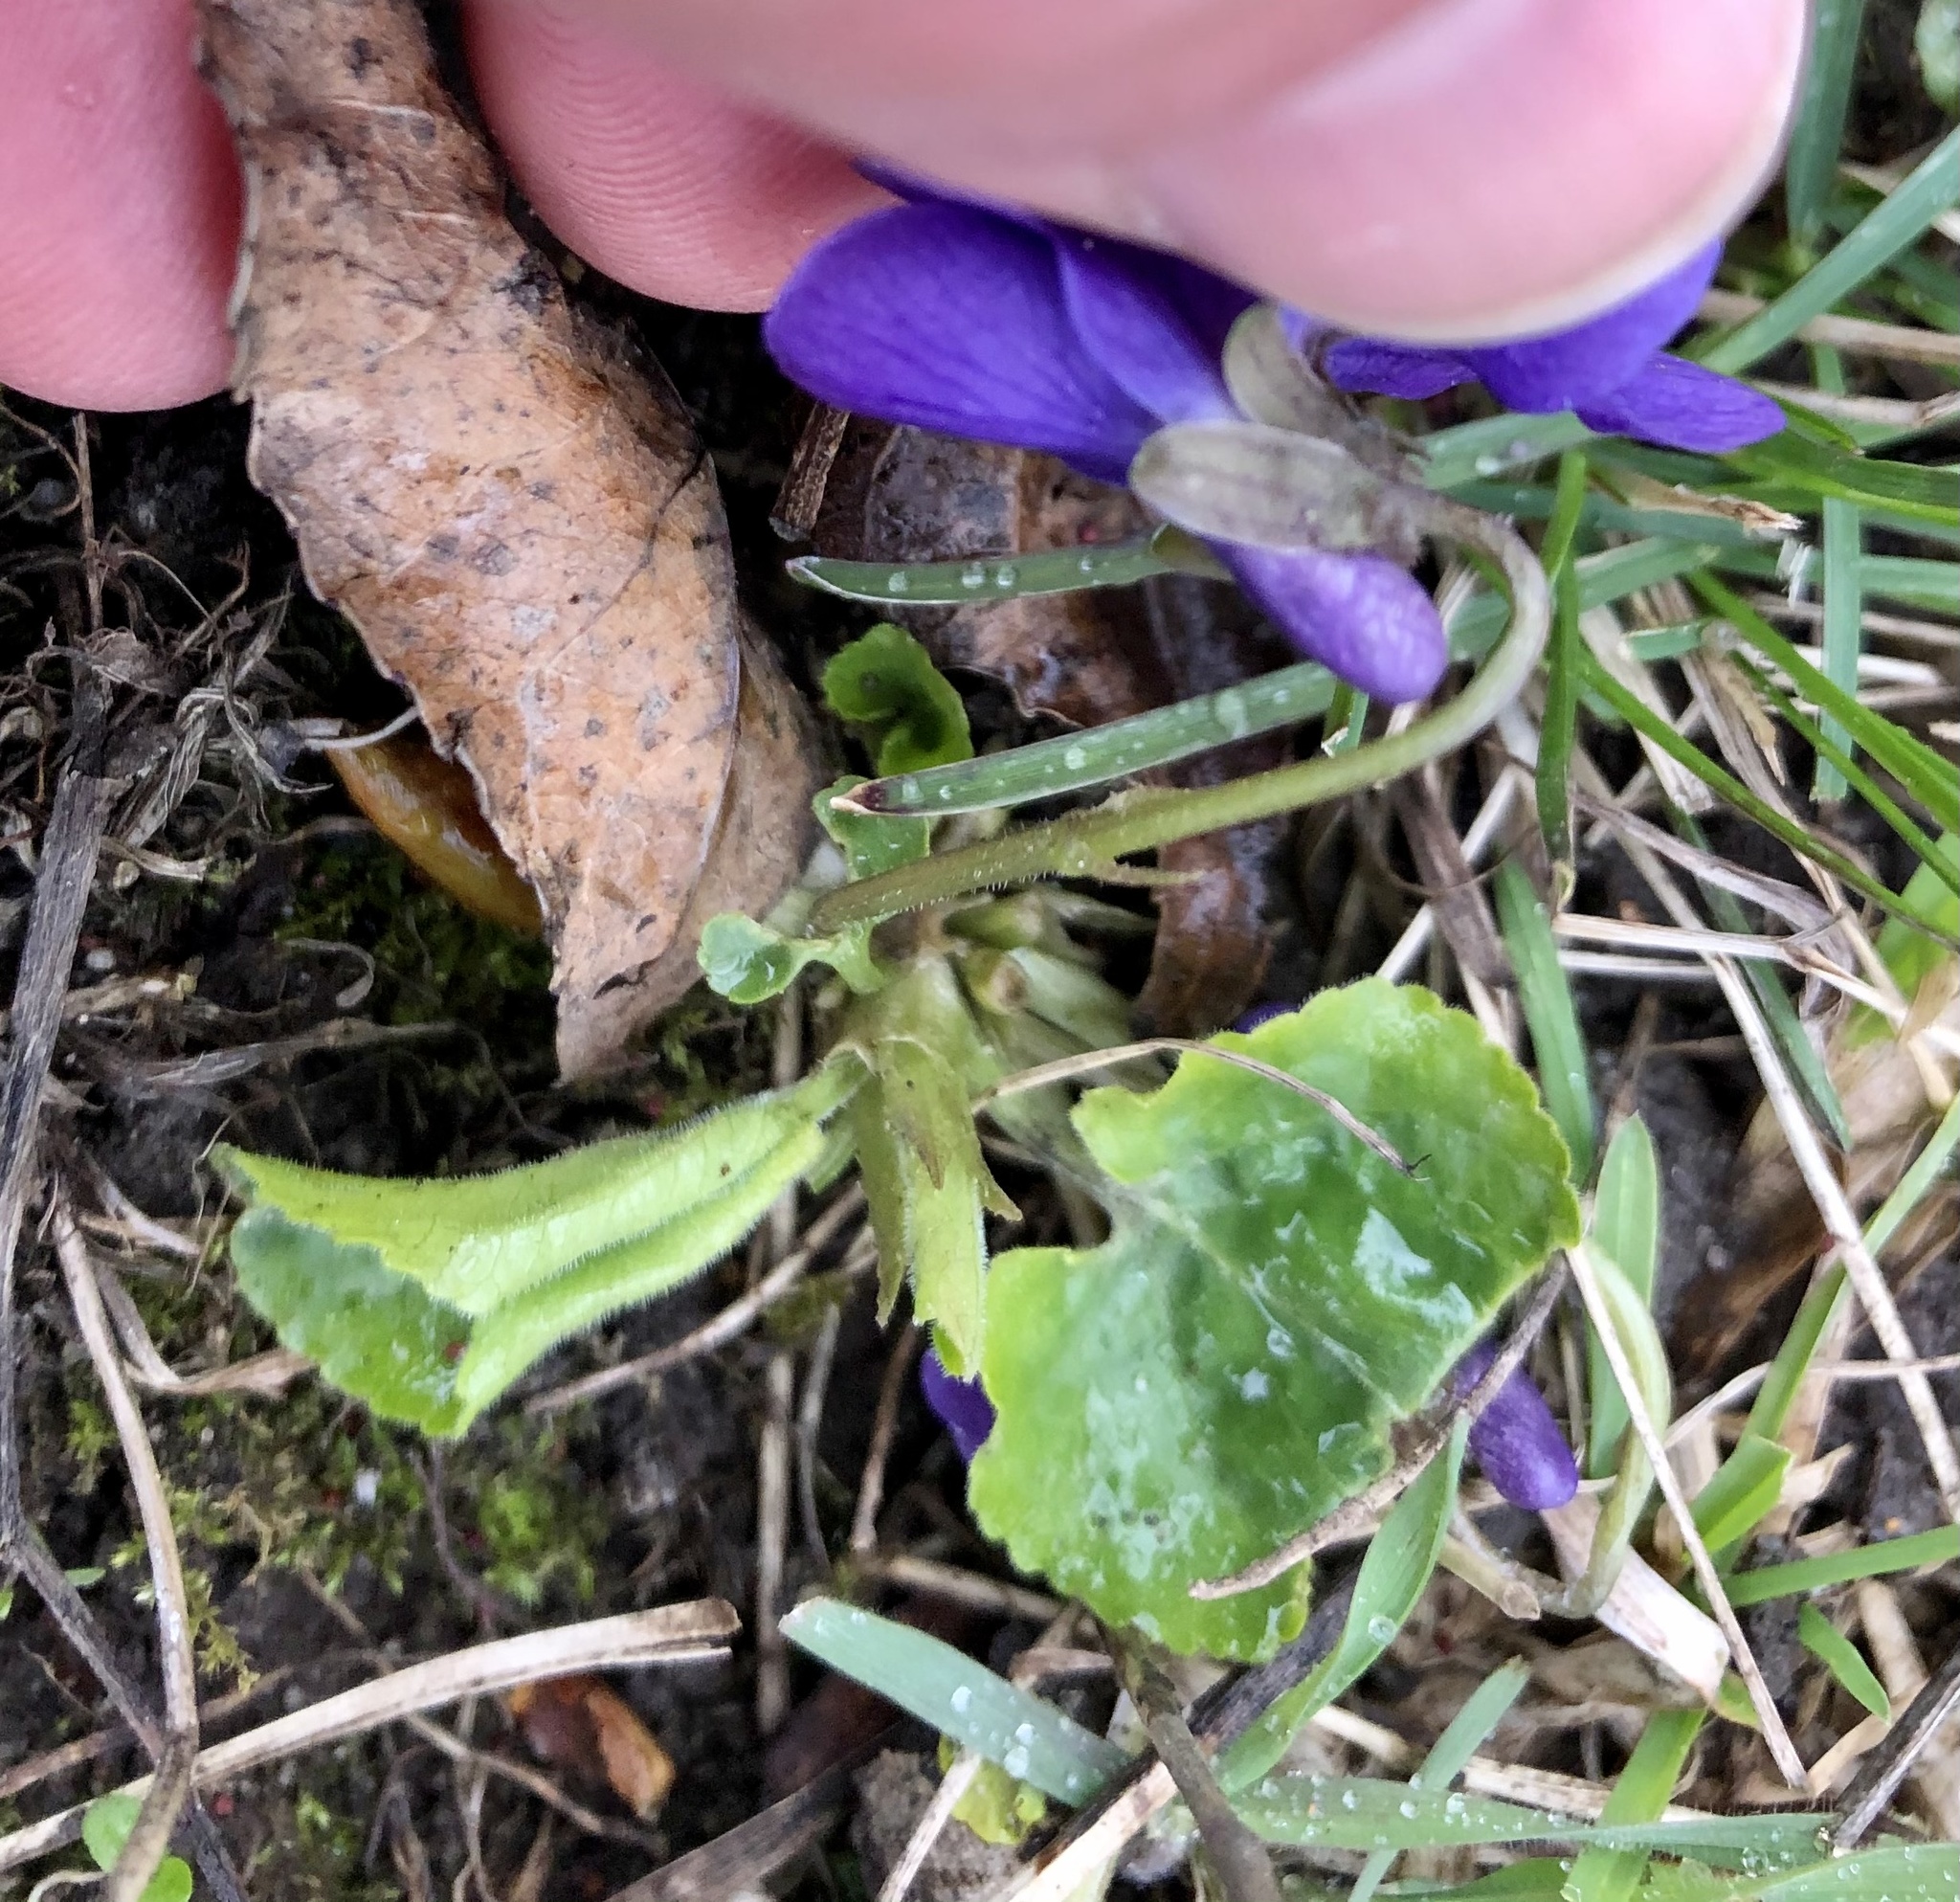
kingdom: Plantae
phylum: Tracheophyta
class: Magnoliopsida
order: Malpighiales
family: Violaceae
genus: Viola
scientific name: Viola odorata
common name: Sweet violet
